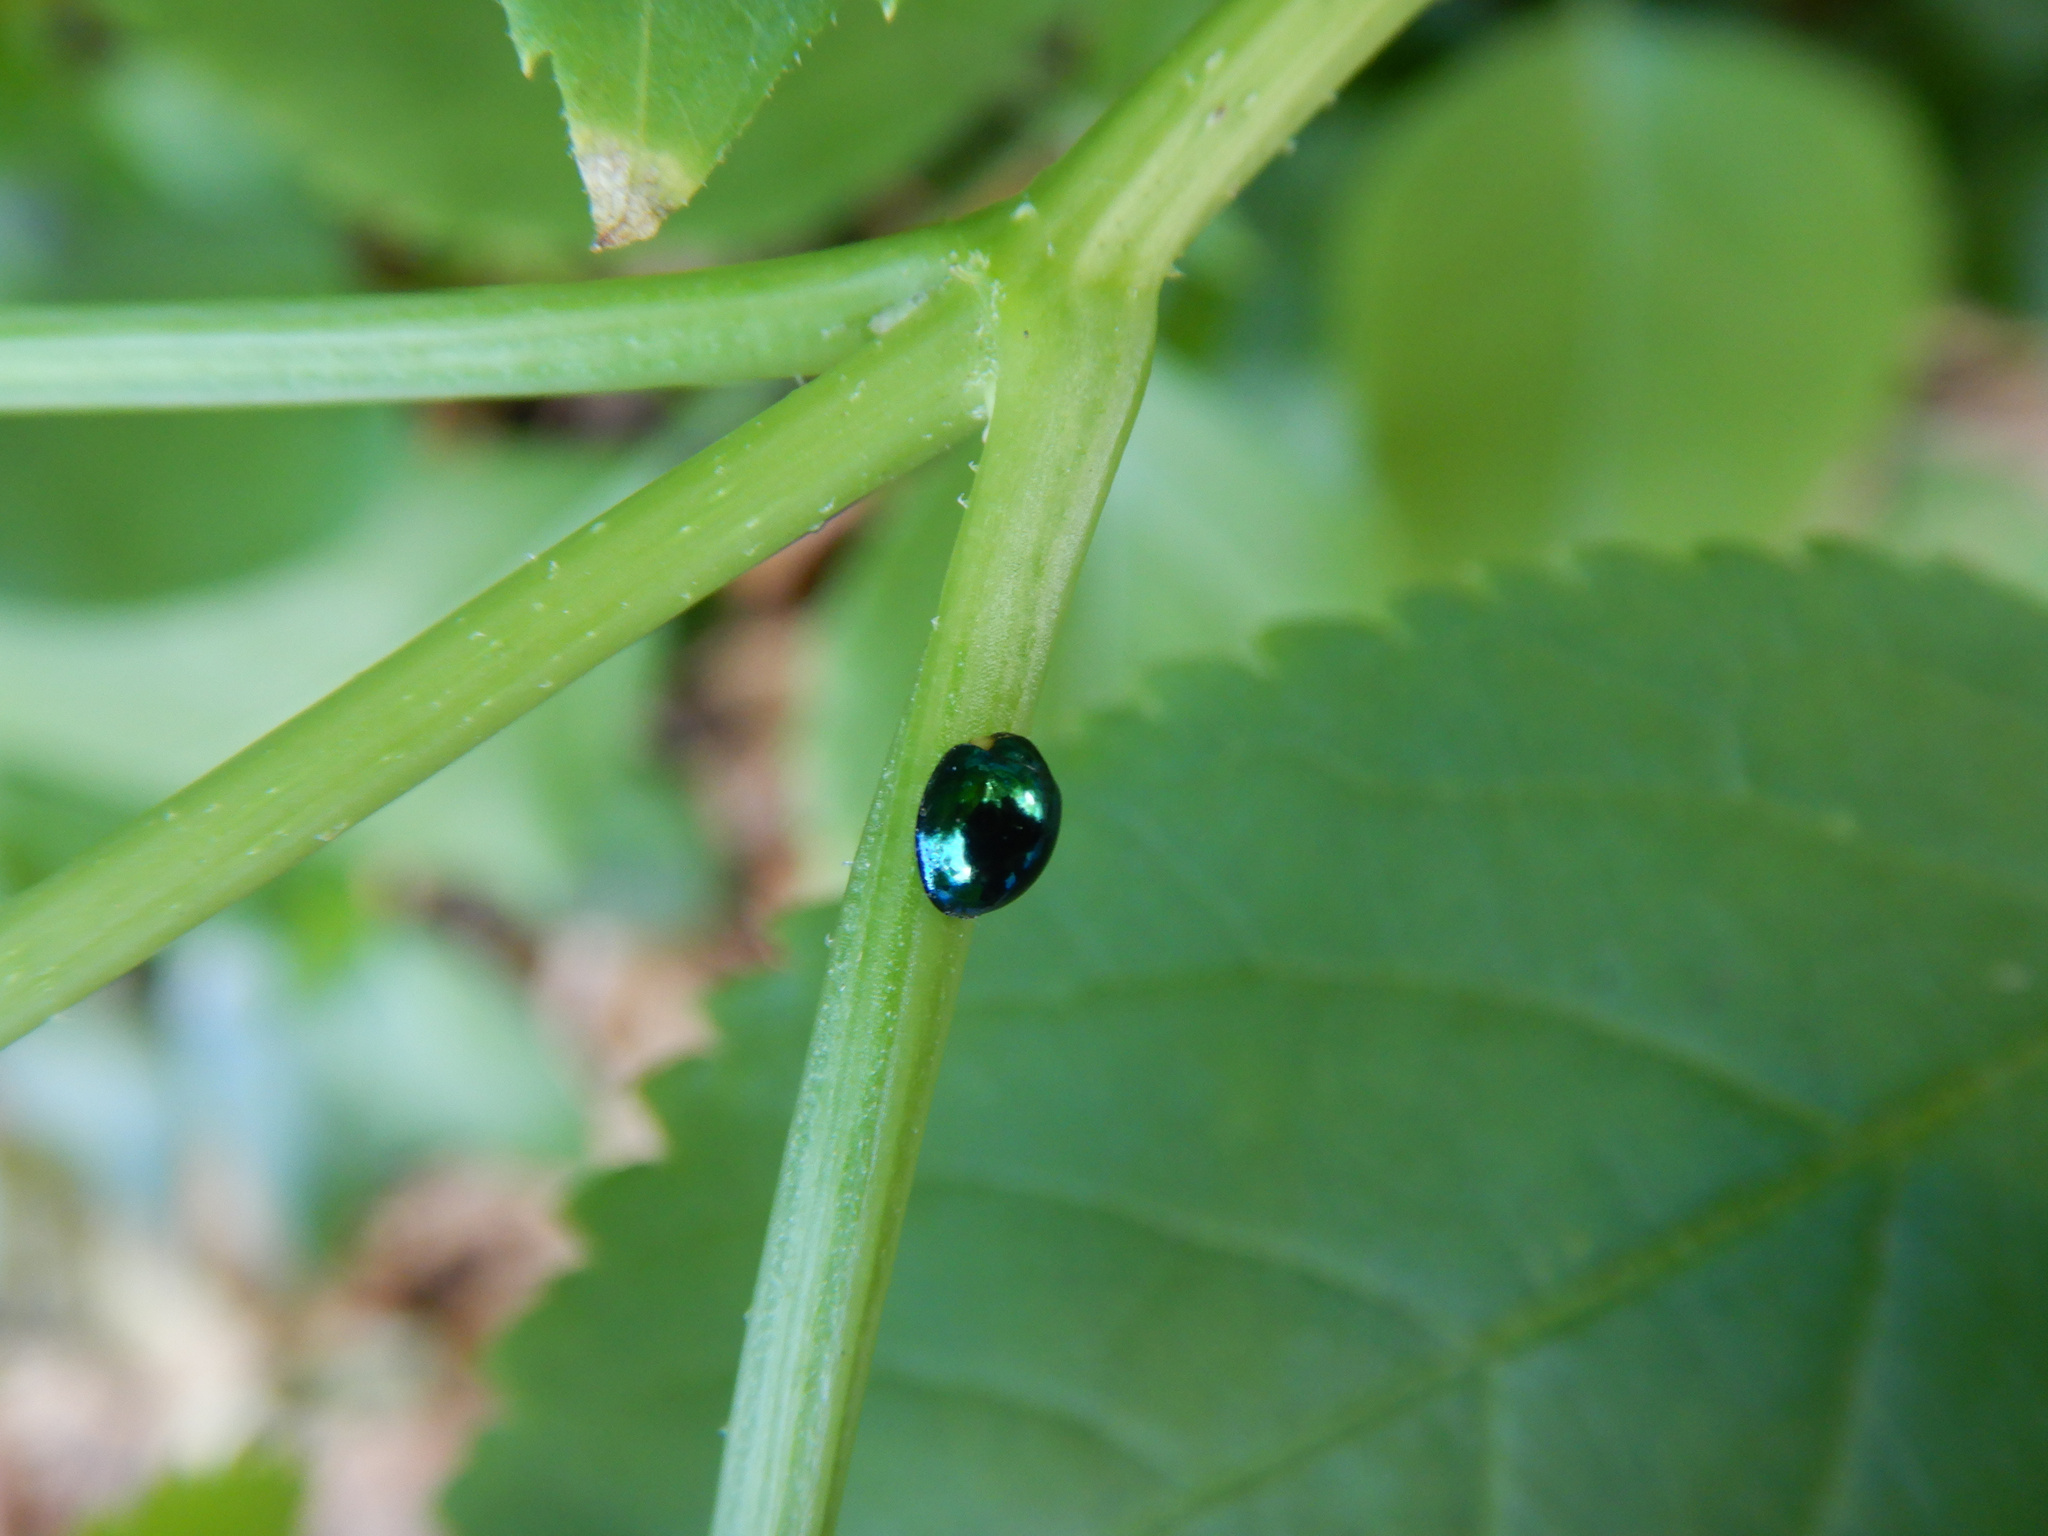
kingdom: Animalia
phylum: Arthropoda
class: Insecta
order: Coleoptera
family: Coccinellidae
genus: Halmus
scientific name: Halmus chalybeus
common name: Steel blue ladybird beetle
